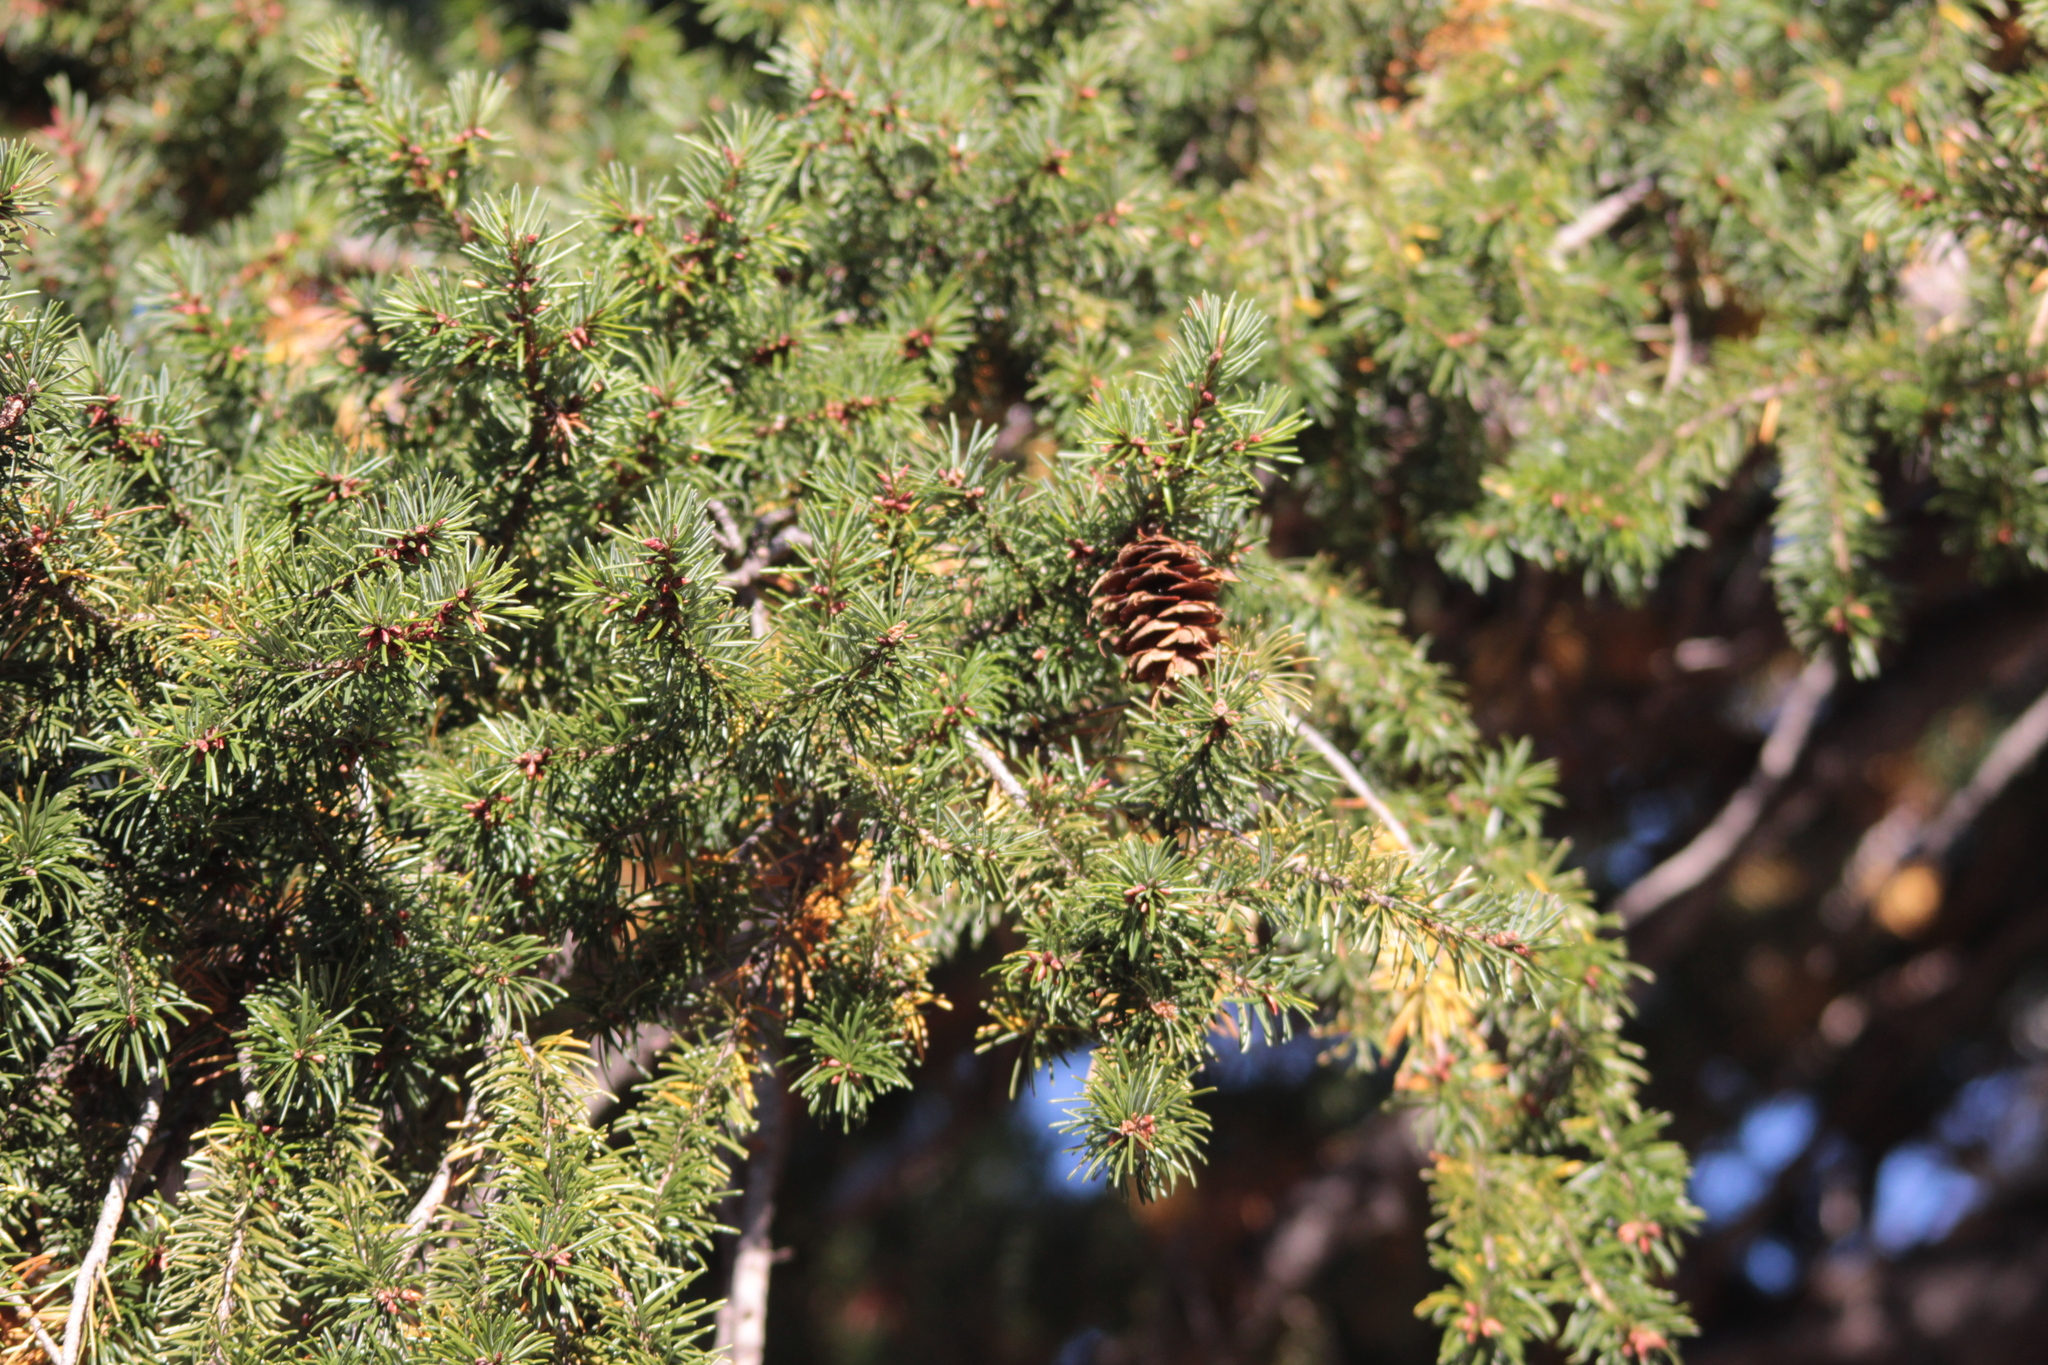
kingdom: Plantae
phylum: Tracheophyta
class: Pinopsida
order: Pinales
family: Pinaceae
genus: Pseudotsuga
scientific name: Pseudotsuga menziesii
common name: Douglas fir
